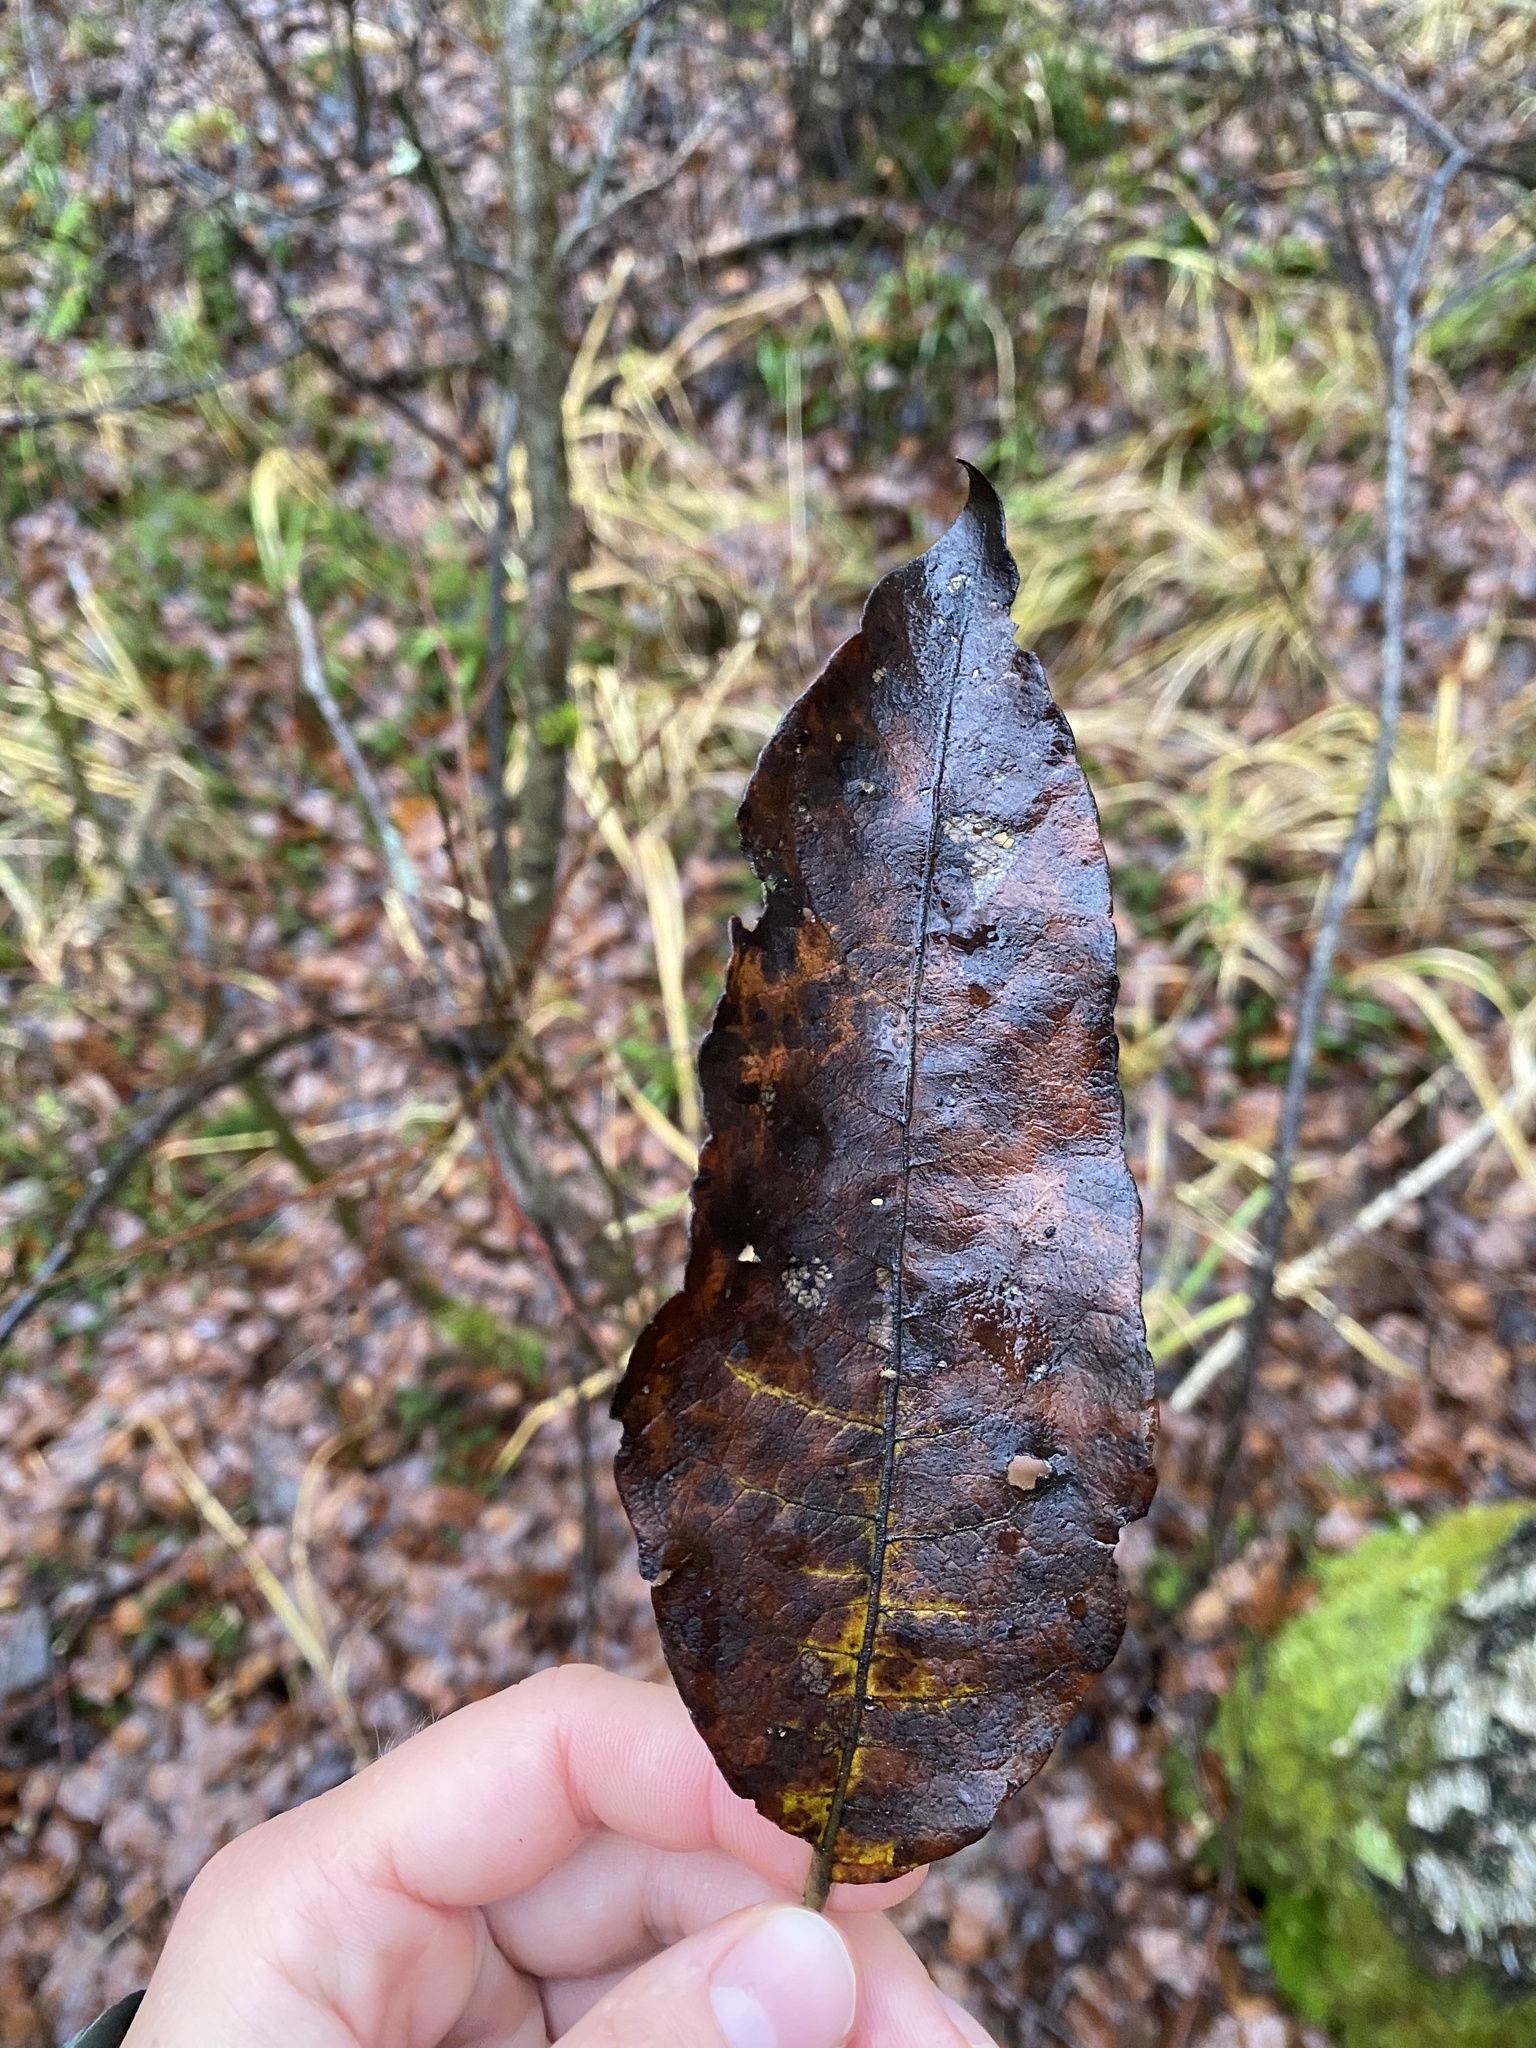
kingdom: Plantae
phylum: Tracheophyta
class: Magnoliopsida
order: Malpighiales
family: Salicaceae
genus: Salix
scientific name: Salix caprea
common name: Goat willow
